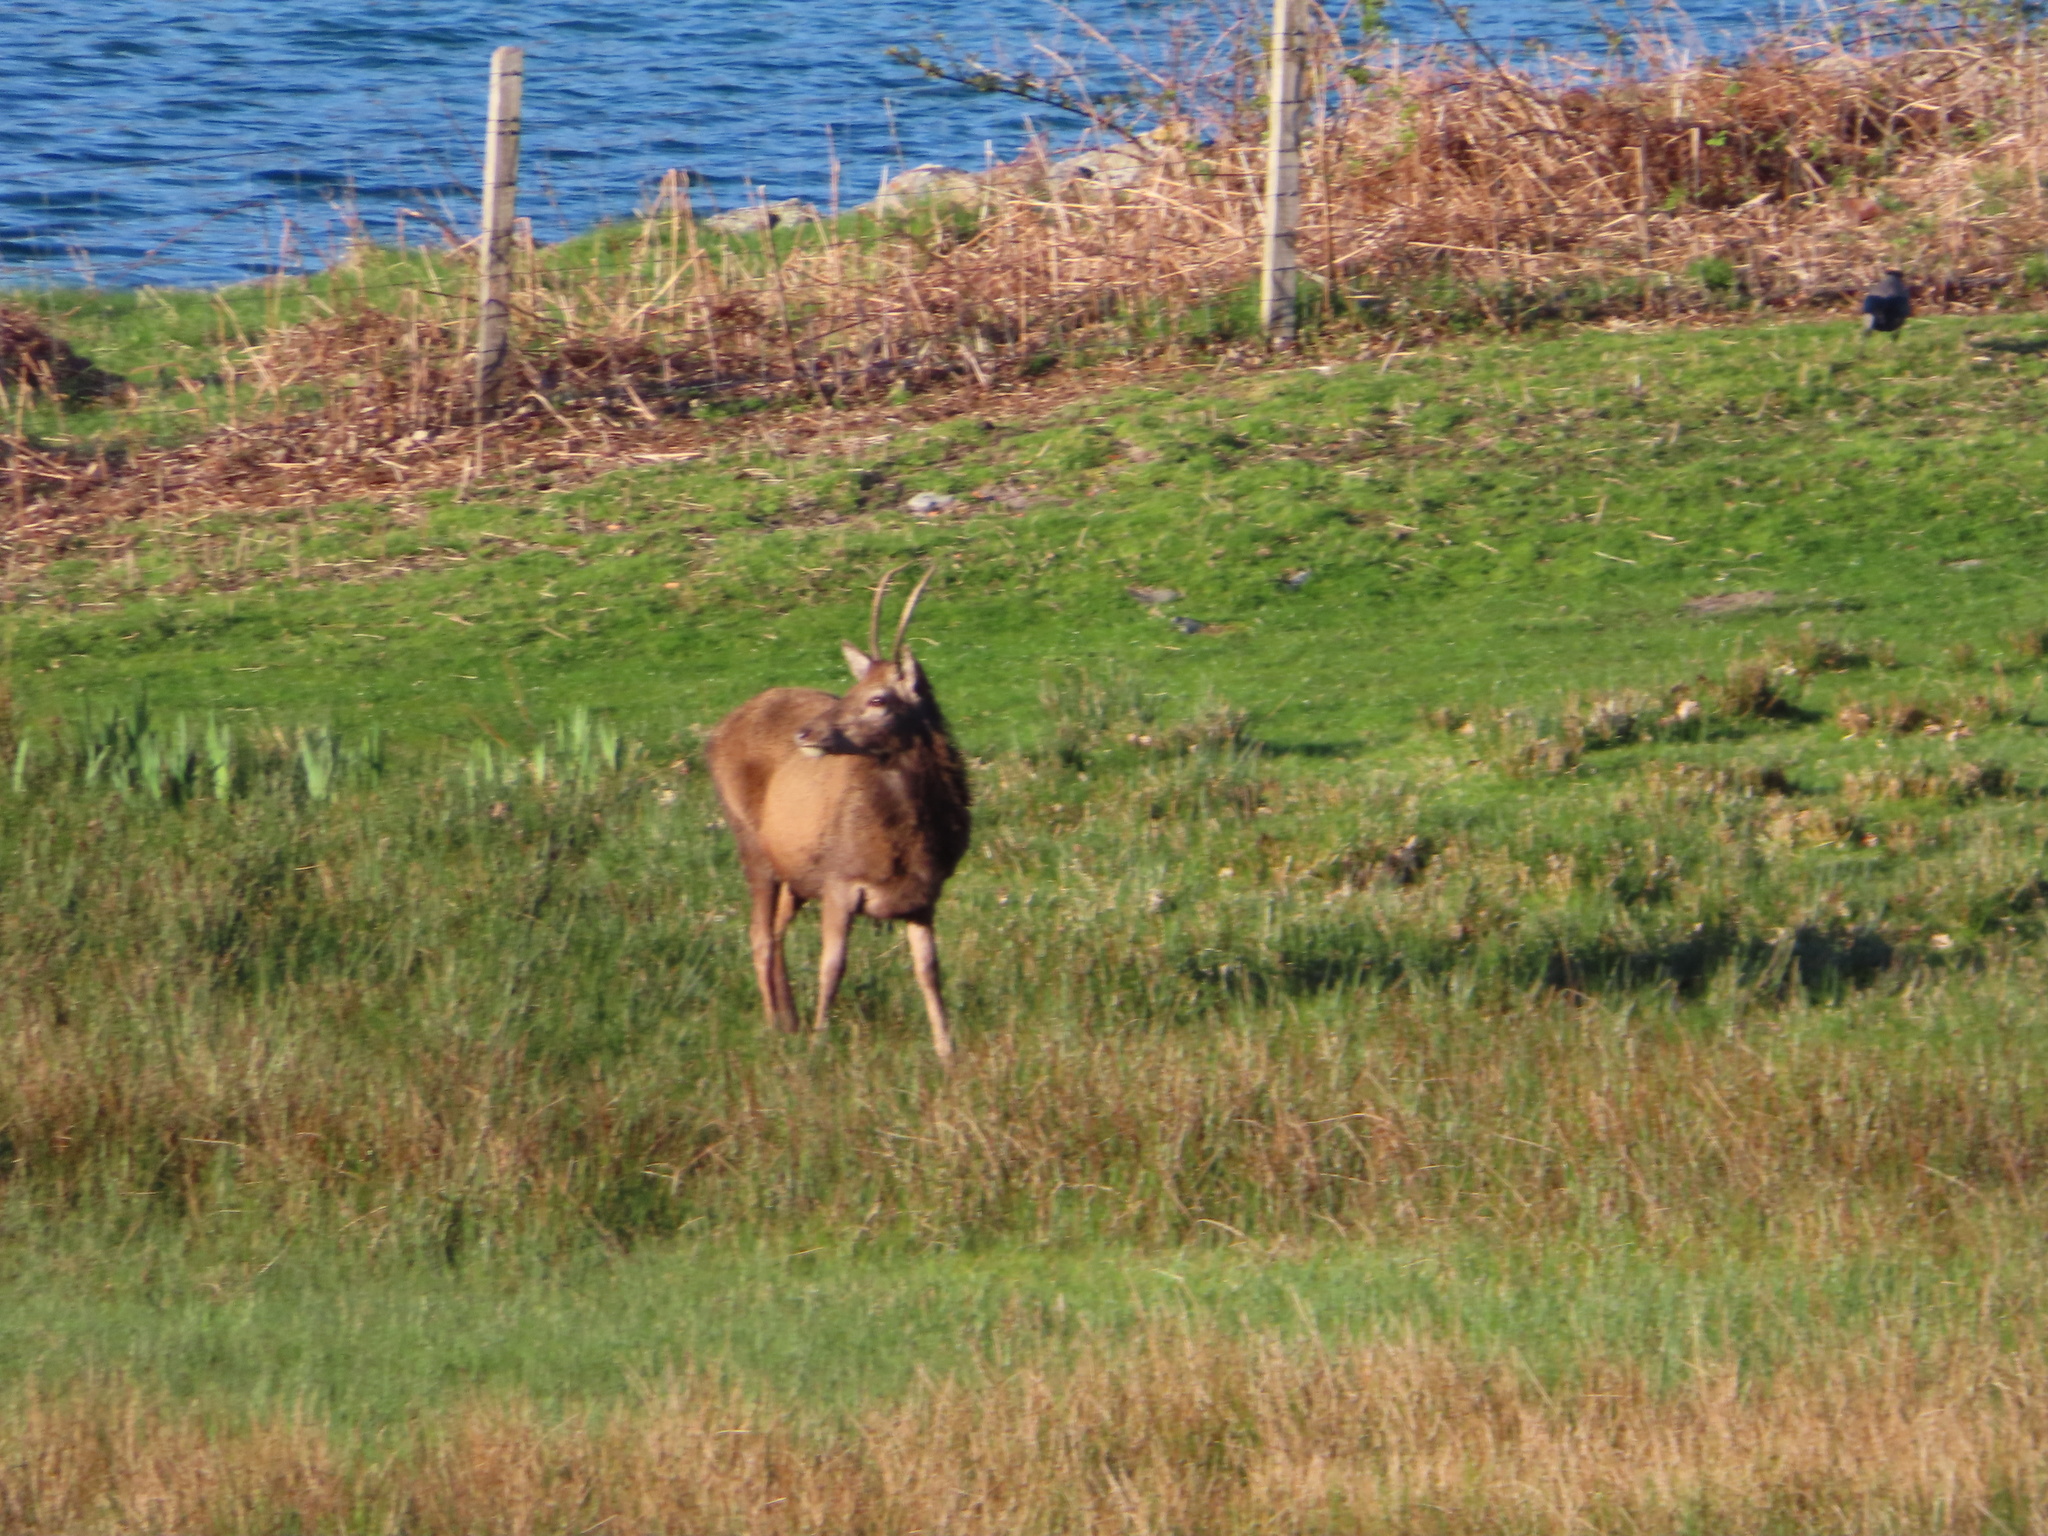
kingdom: Animalia
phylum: Chordata
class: Mammalia
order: Artiodactyla
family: Cervidae
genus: Cervus
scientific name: Cervus elaphus
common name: Red deer
